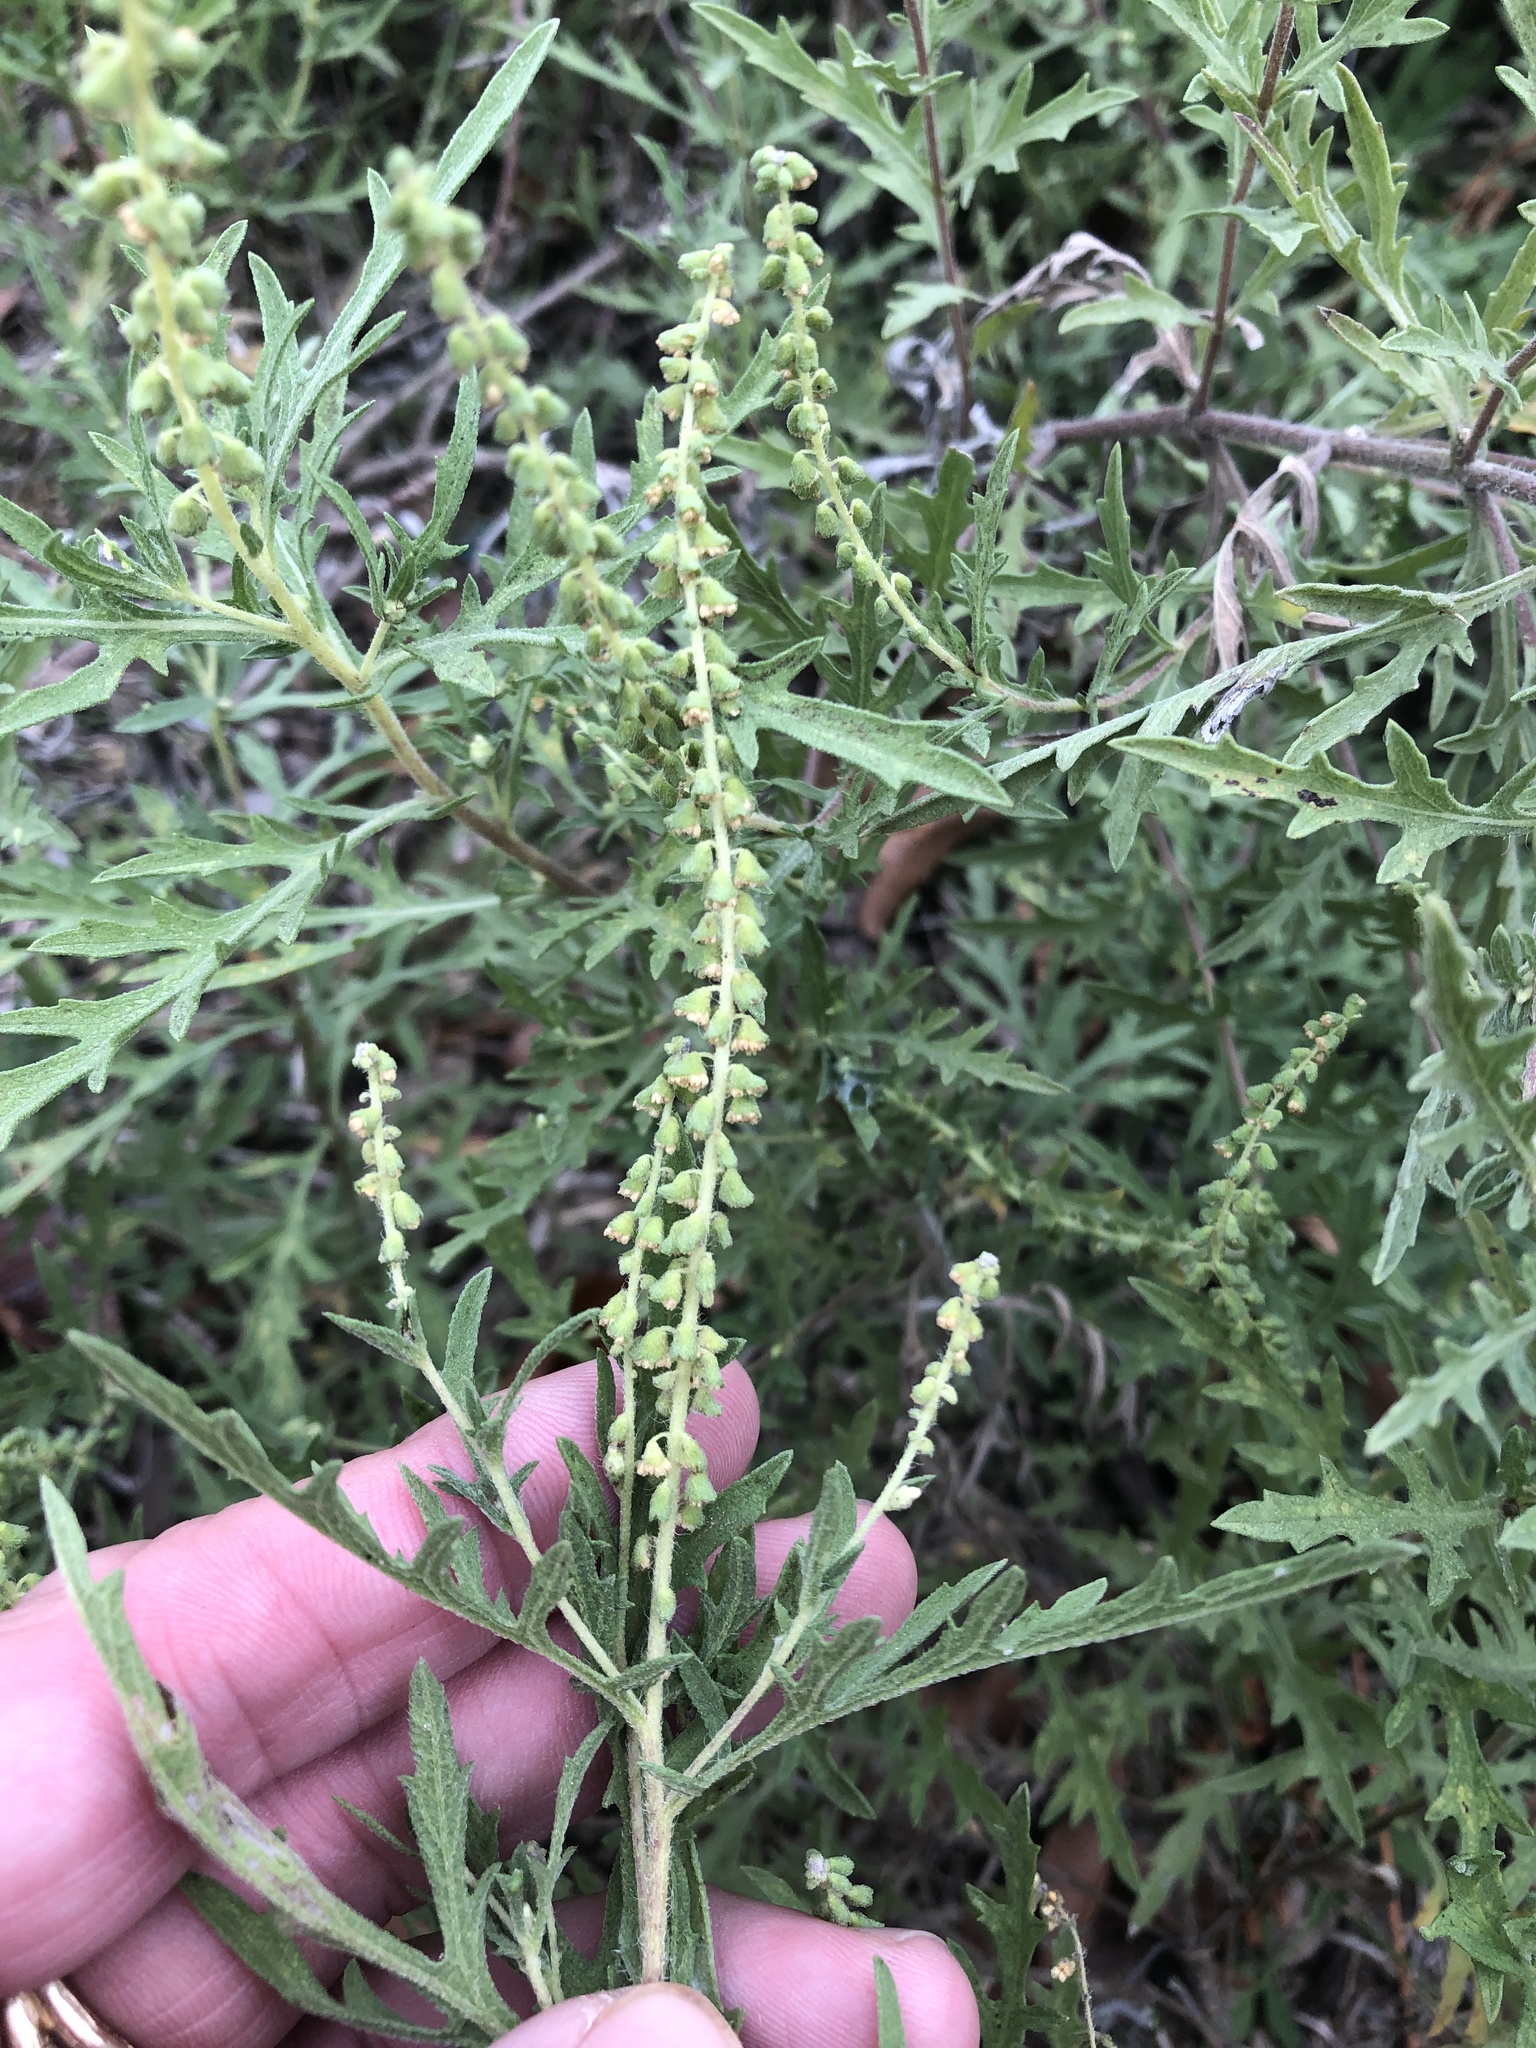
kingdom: Plantae
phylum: Tracheophyta
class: Magnoliopsida
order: Asterales
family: Asteraceae
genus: Ambrosia
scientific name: Ambrosia psilostachya
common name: Perennial ragweed
